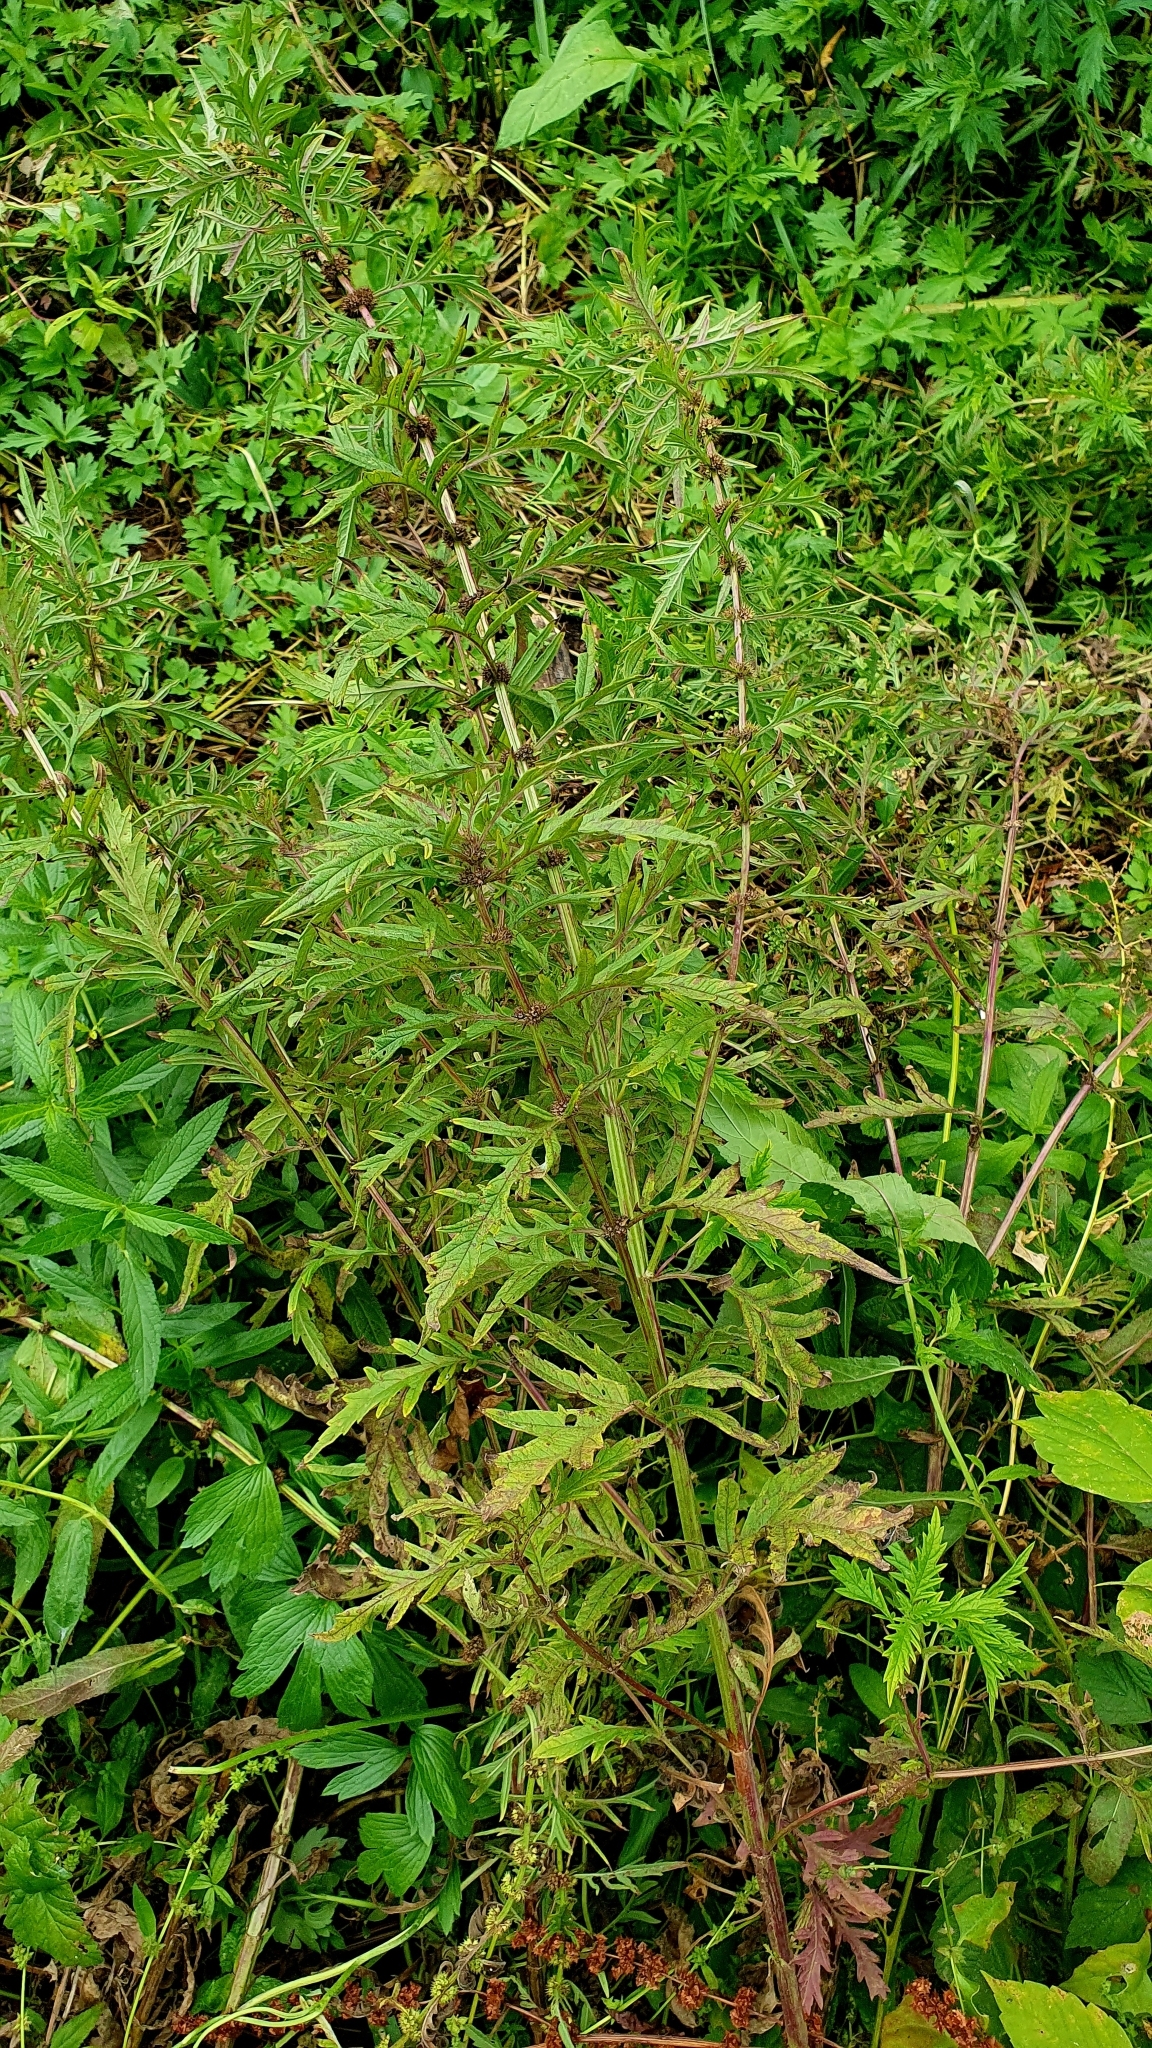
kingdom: Plantae
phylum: Tracheophyta
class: Magnoliopsida
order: Lamiales
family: Lamiaceae
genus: Lycopus
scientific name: Lycopus exaltatus
